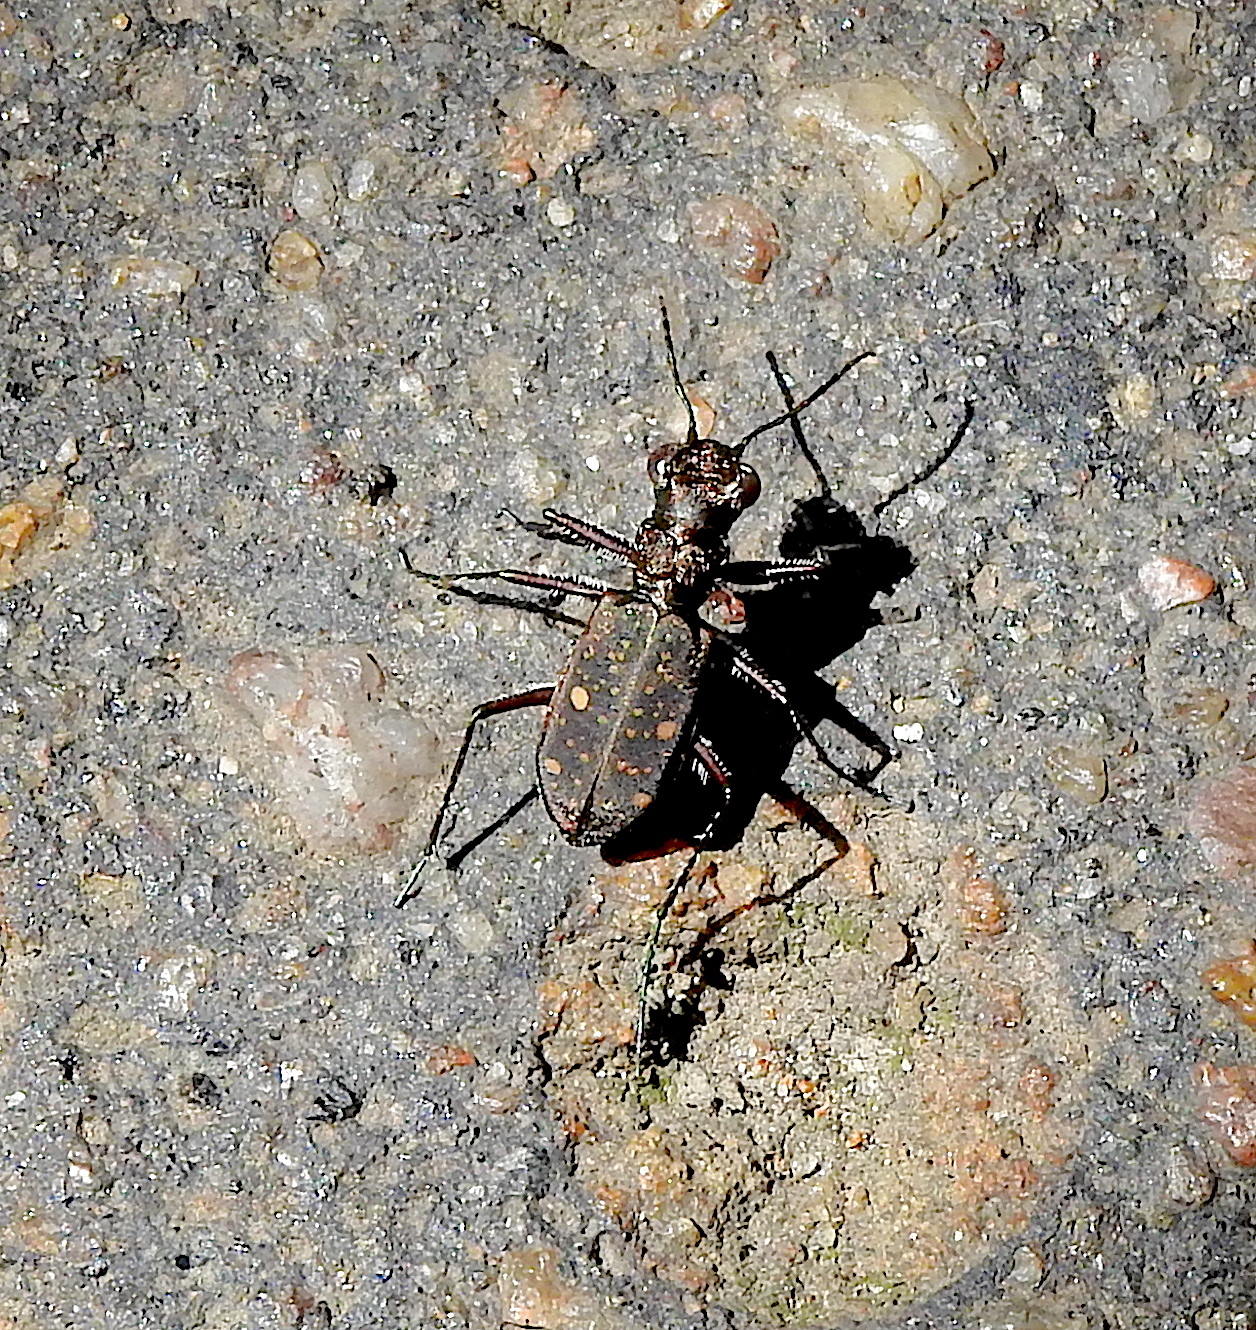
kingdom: Animalia
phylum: Arthropoda
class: Insecta
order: Coleoptera
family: Carabidae
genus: Jansenia
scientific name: Jansenia tetragrammica
